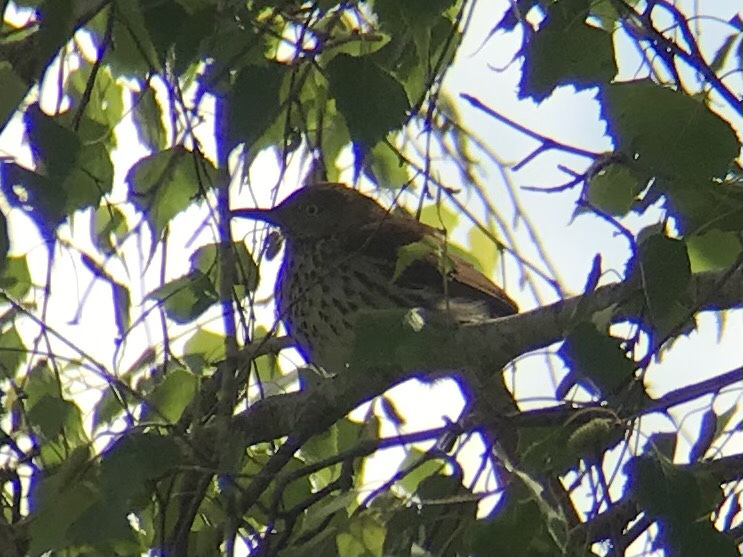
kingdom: Animalia
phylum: Chordata
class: Aves
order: Passeriformes
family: Mimidae
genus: Toxostoma
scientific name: Toxostoma rufum
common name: Brown thrasher
